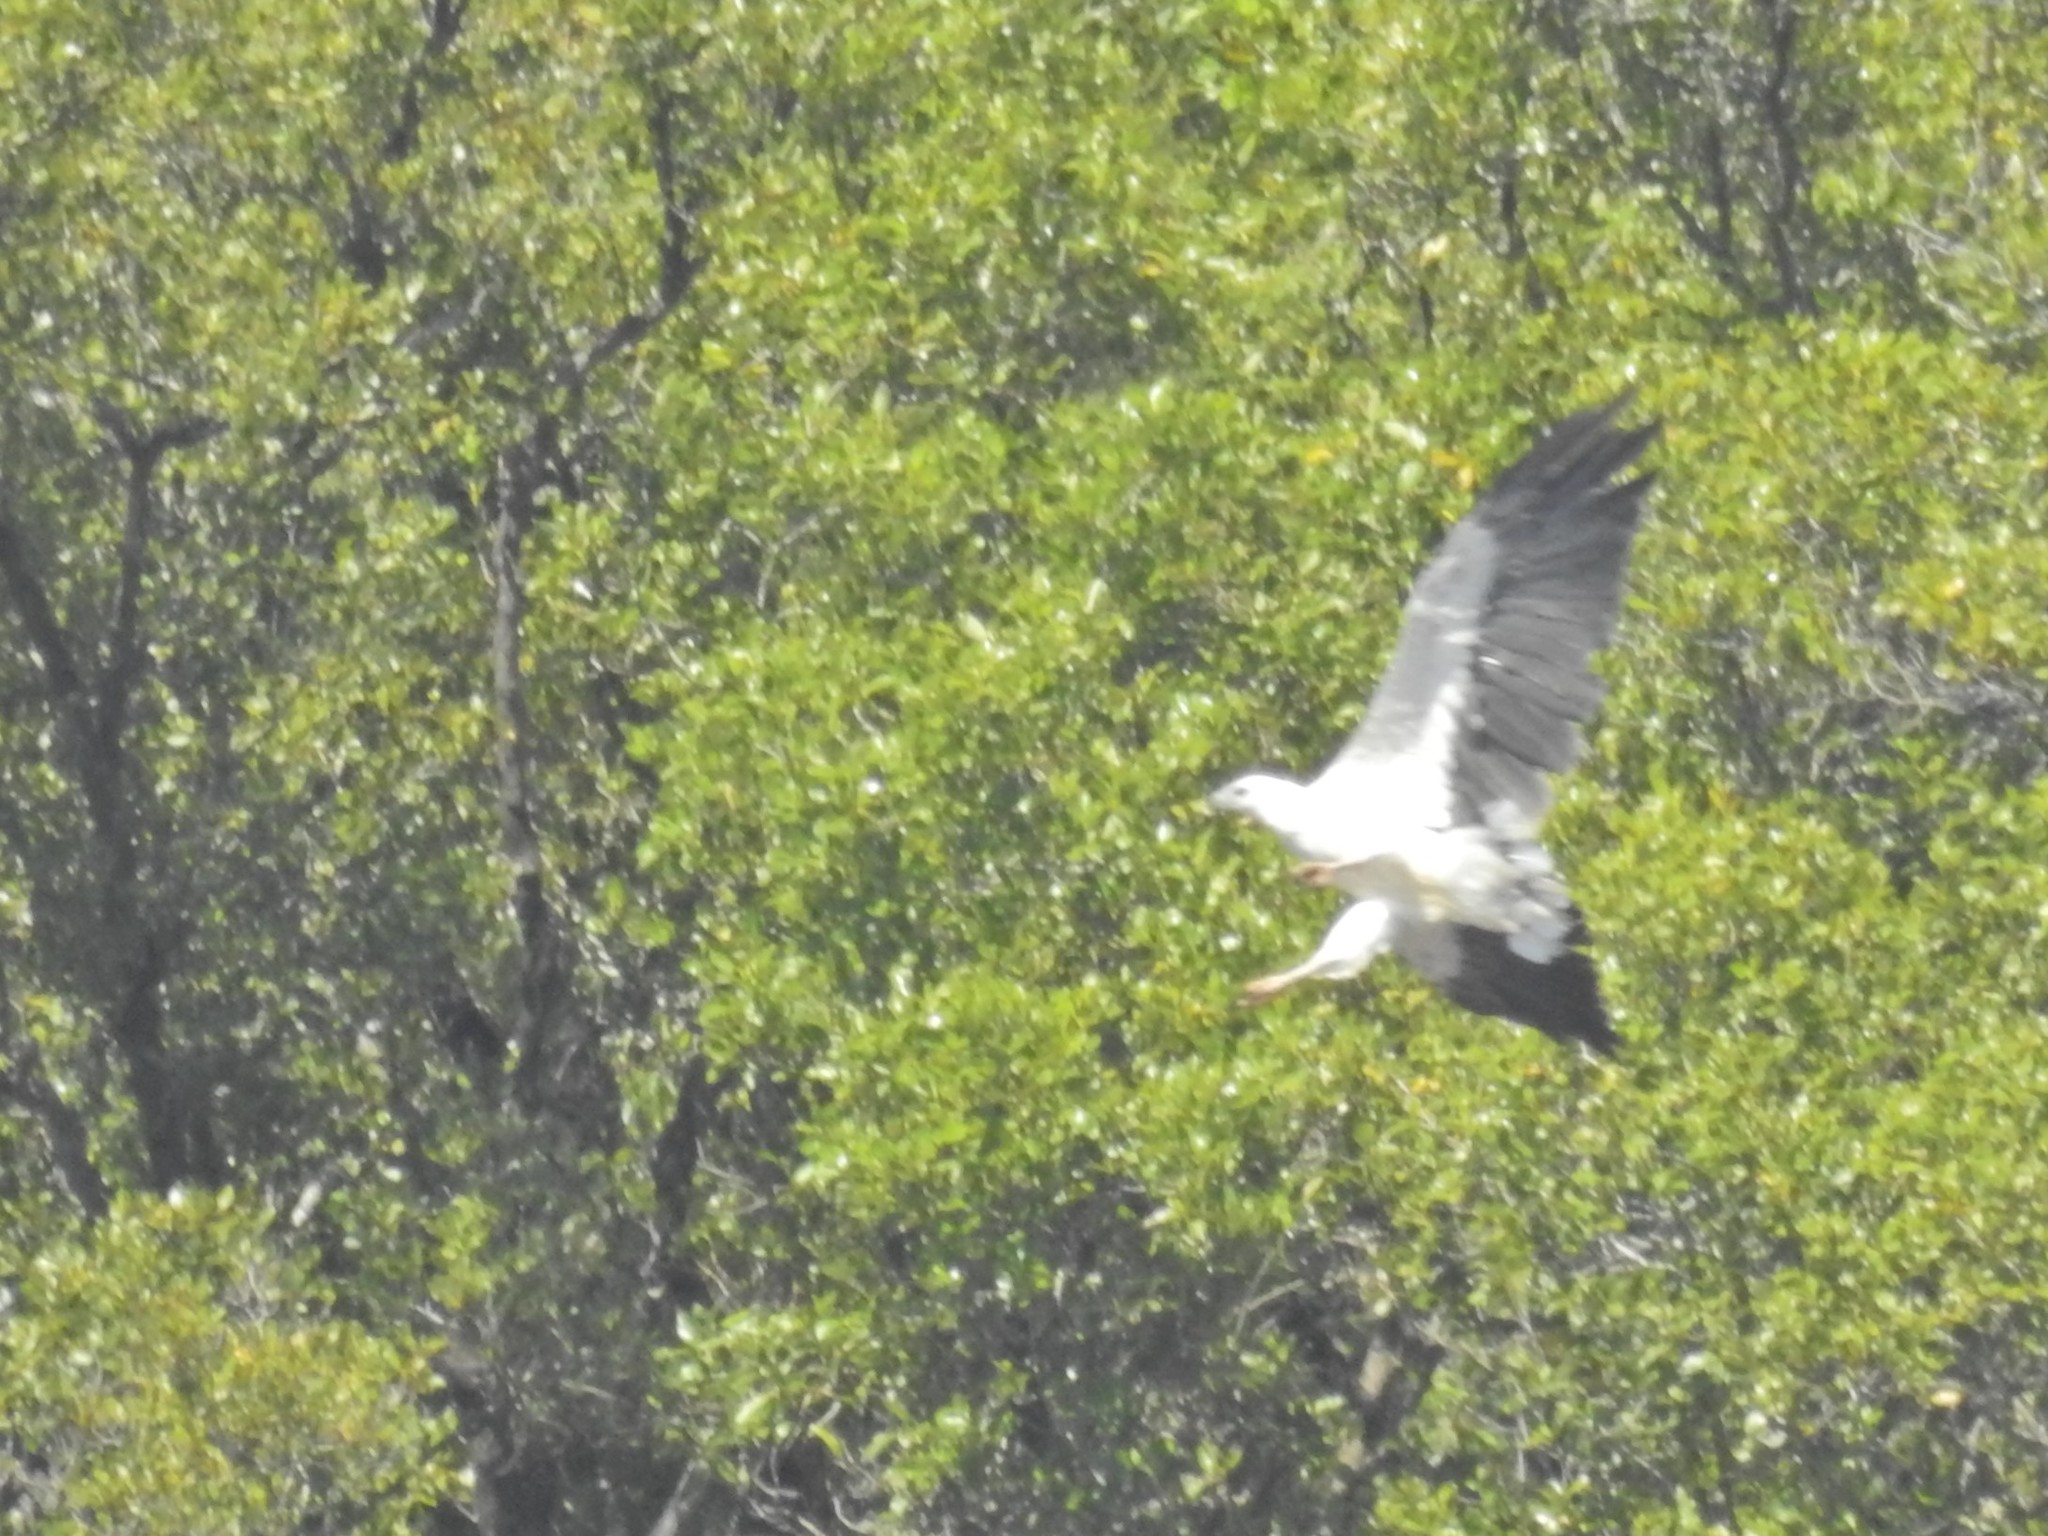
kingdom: Animalia
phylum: Chordata
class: Aves
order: Accipitriformes
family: Accipitridae
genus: Haliaeetus
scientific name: Haliaeetus leucogaster
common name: White-bellied sea eagle
